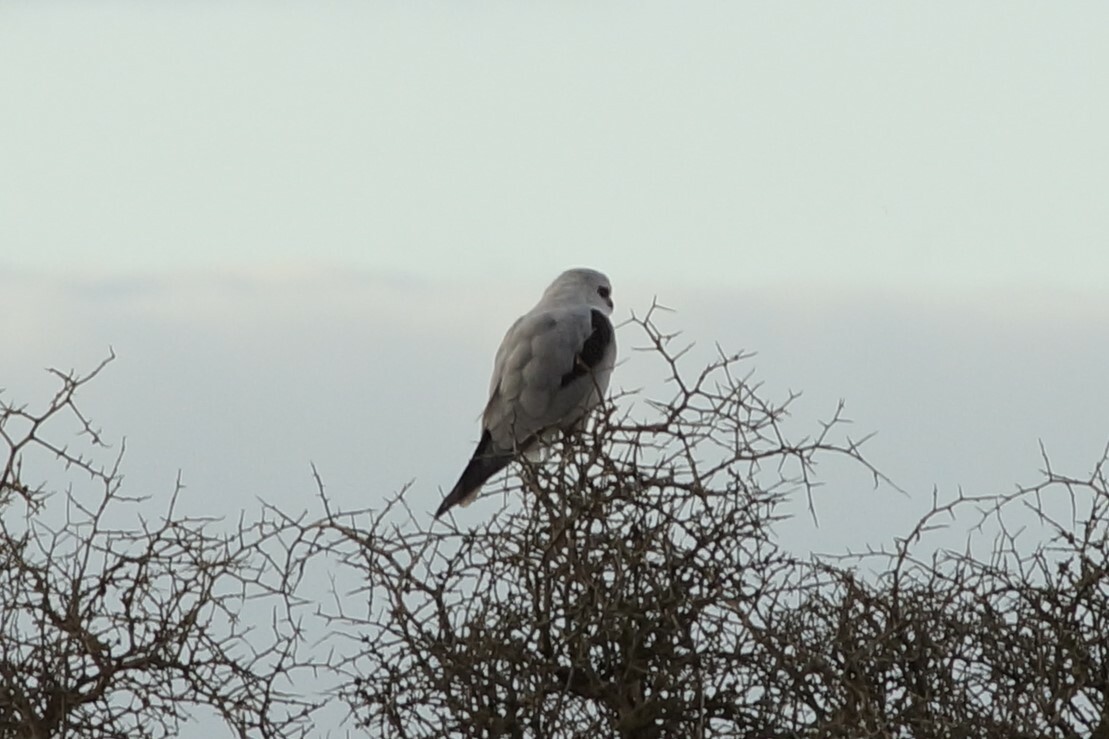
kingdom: Animalia
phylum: Chordata
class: Aves
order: Accipitriformes
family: Accipitridae
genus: Elanus
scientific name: Elanus axillaris
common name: Black-shouldered kite
